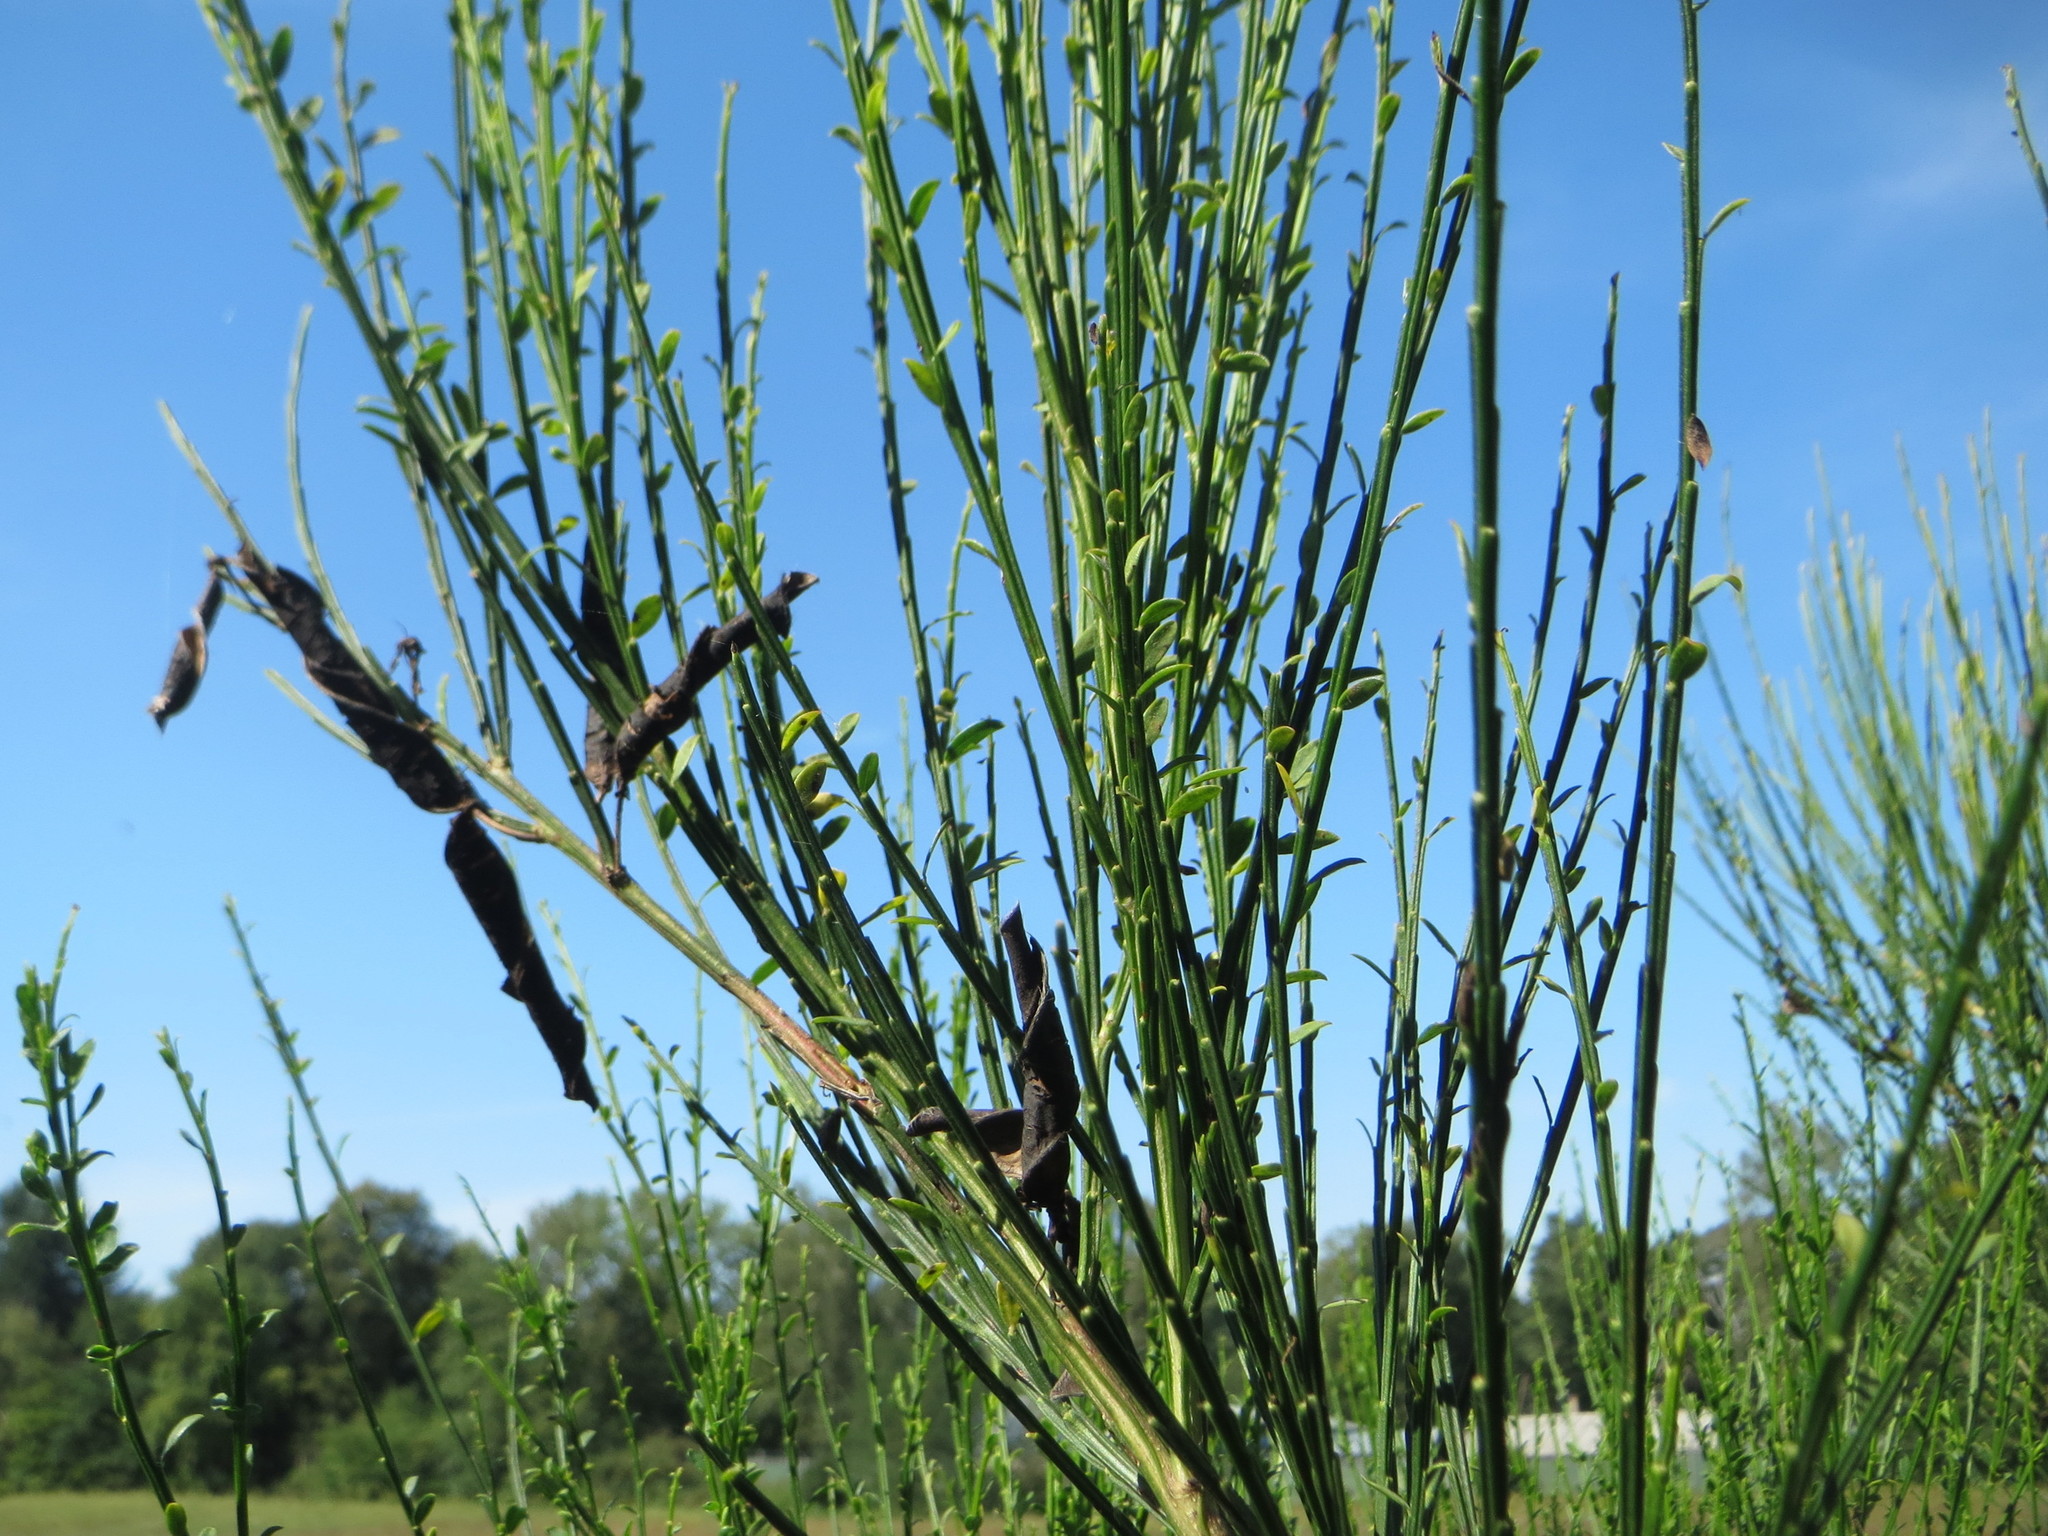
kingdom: Plantae
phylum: Tracheophyta
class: Magnoliopsida
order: Fabales
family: Fabaceae
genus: Cytisus
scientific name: Cytisus scoparius
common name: Scotch broom
